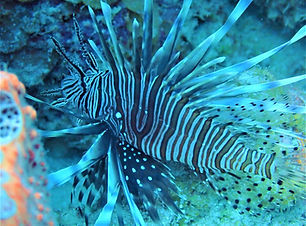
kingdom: Animalia
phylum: Chordata
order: Scorpaeniformes
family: Scorpaenidae
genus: Pterois
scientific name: Pterois volitans
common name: Lionfish
